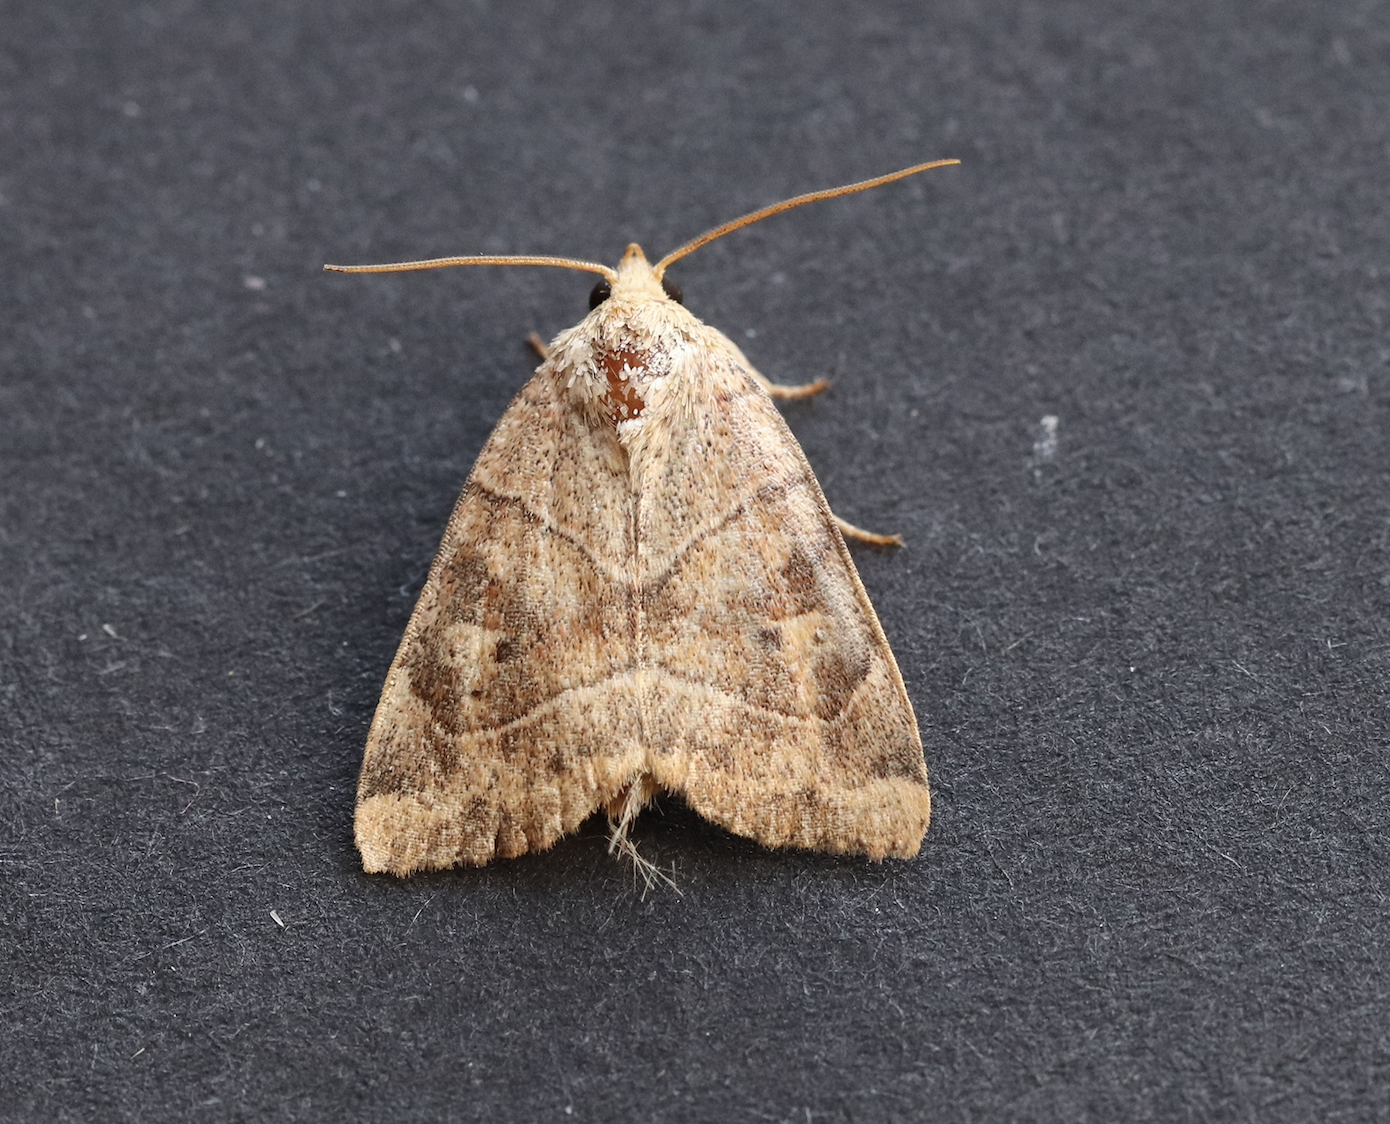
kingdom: Animalia
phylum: Arthropoda
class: Insecta
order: Lepidoptera
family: Noctuidae
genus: Cosmia
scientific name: Cosmia trapezina
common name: Dun-bar
